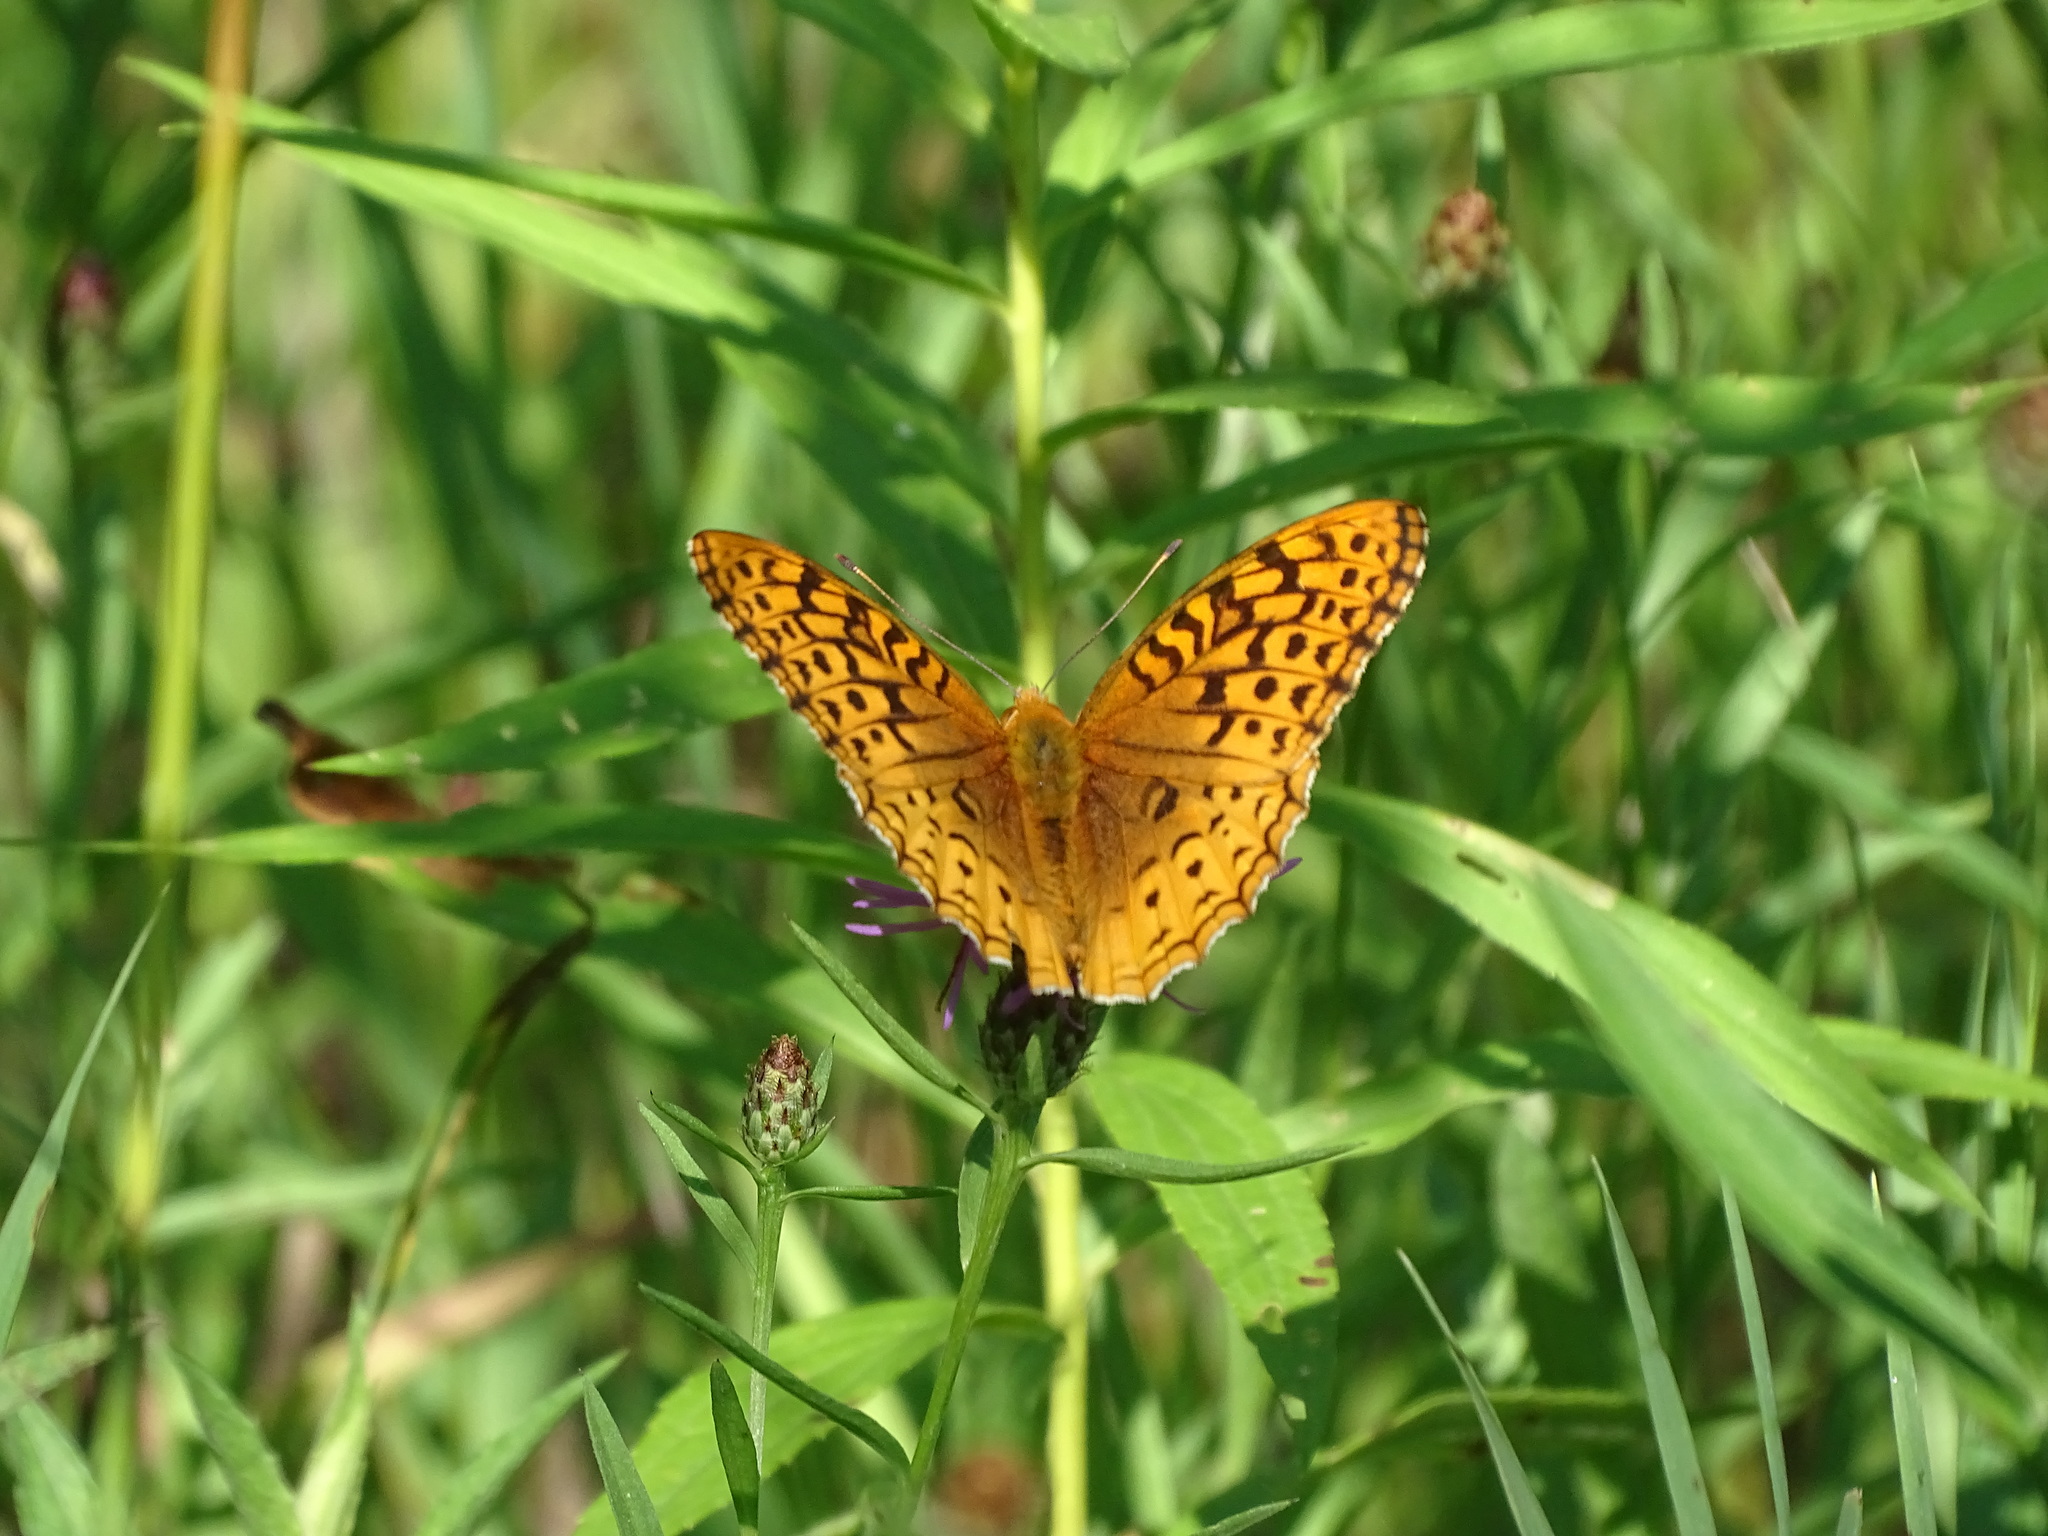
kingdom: Animalia
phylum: Arthropoda
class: Insecta
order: Lepidoptera
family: Nymphalidae
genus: Speyeria
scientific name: Speyeria cybele
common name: Great spangled fritillary
